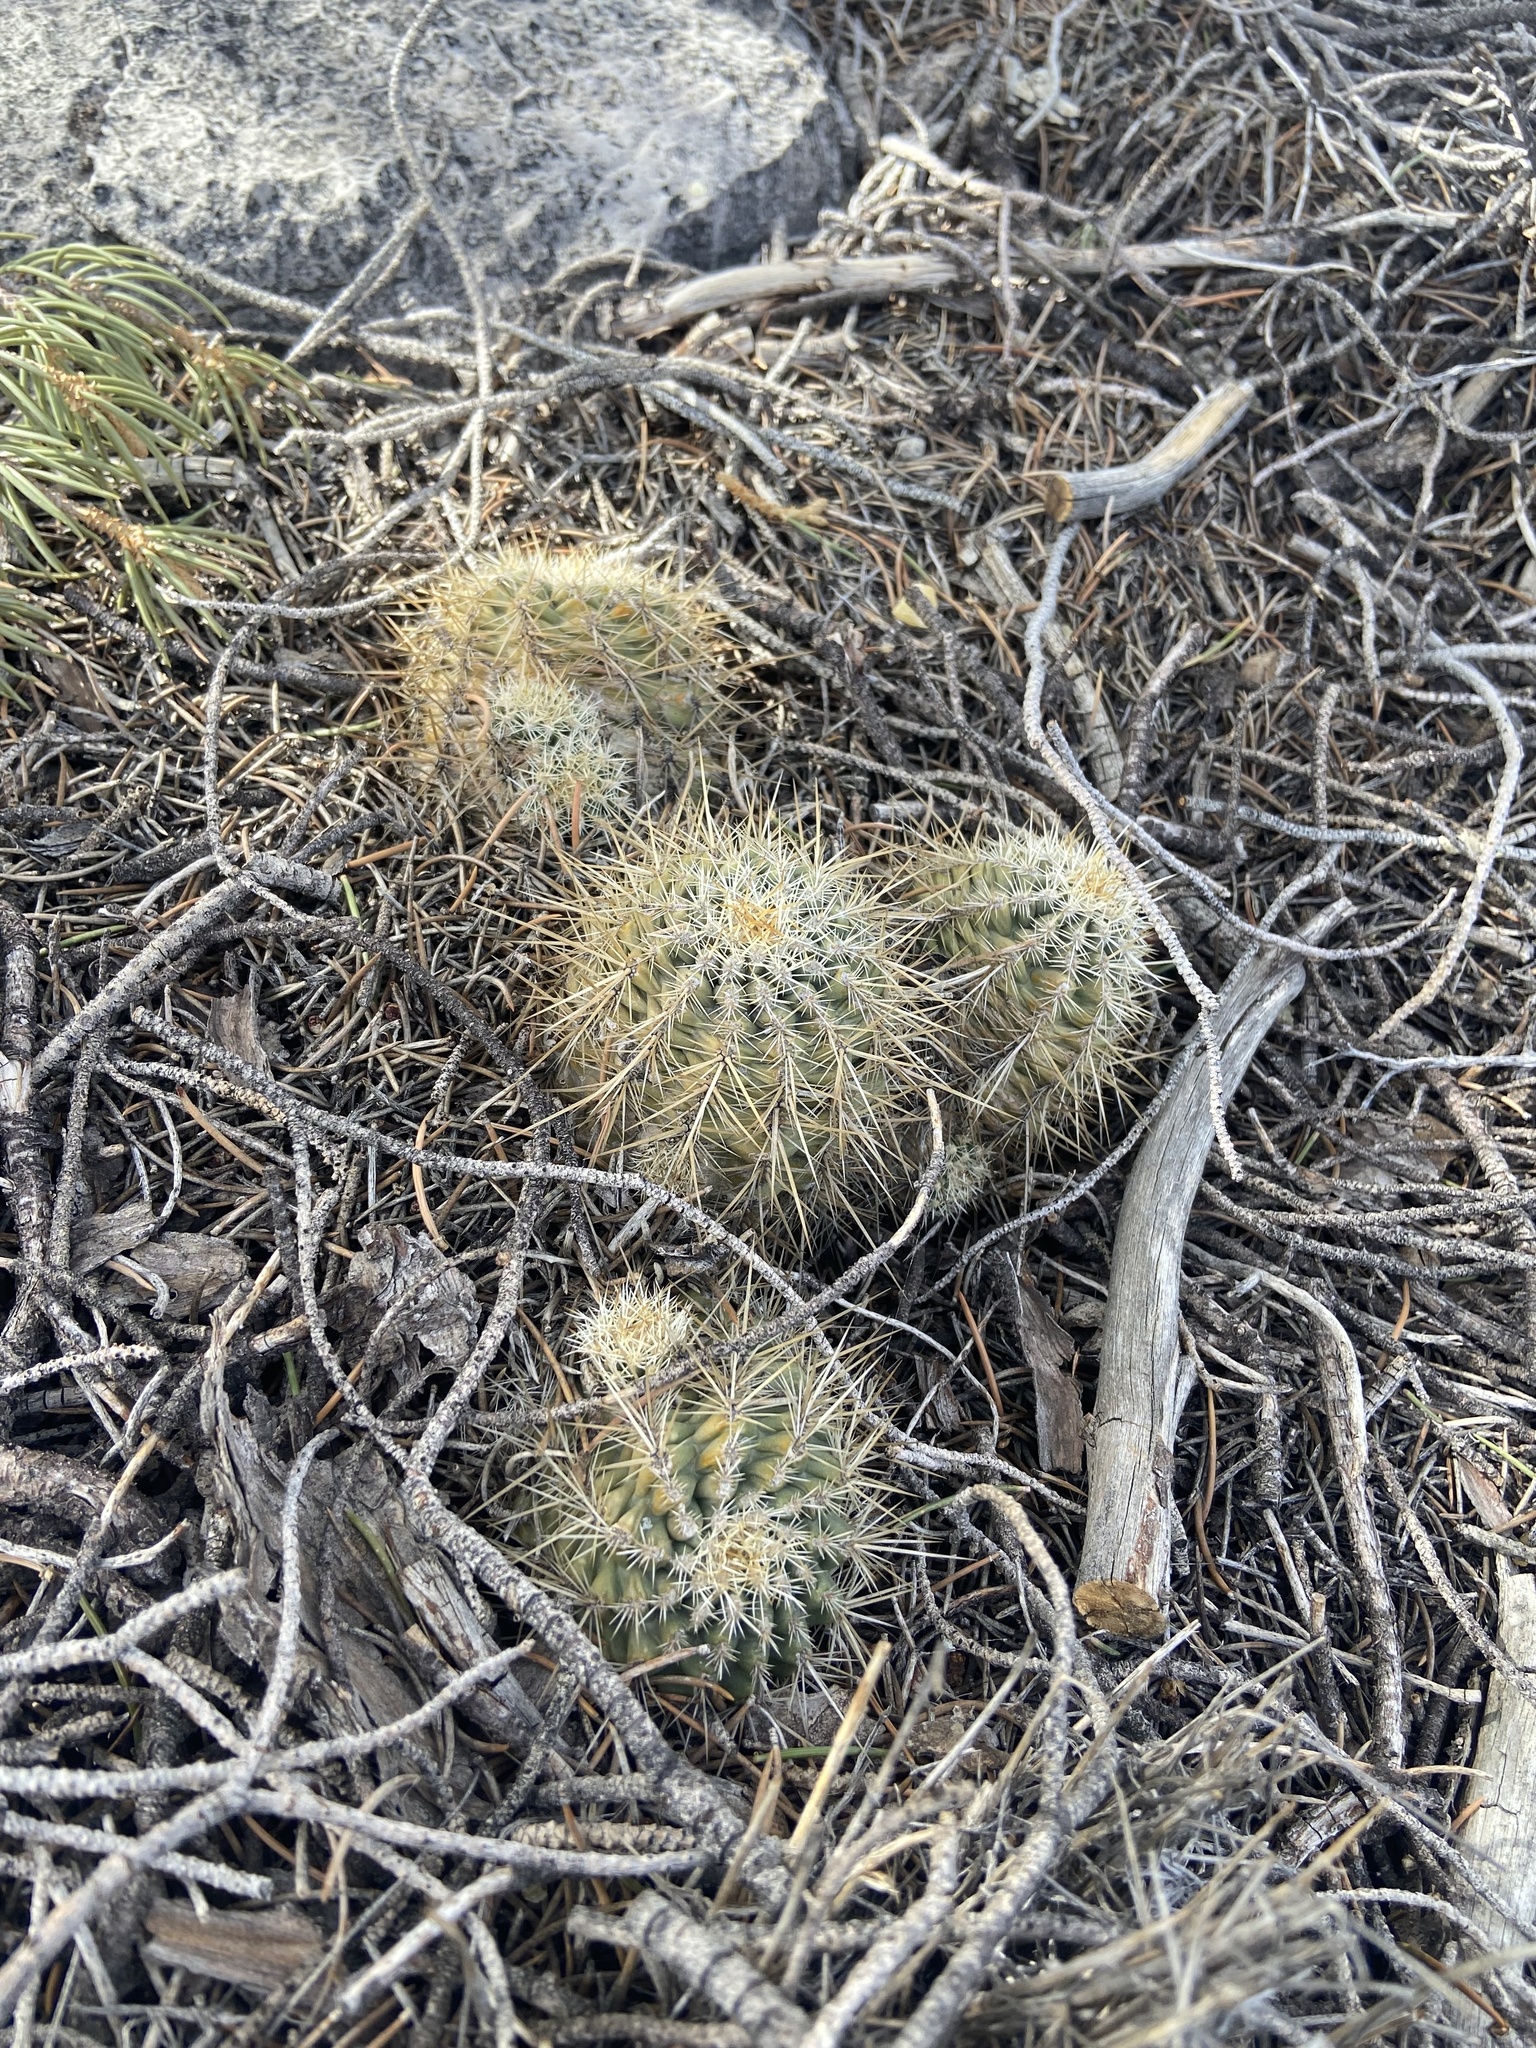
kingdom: Plantae
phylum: Tracheophyta
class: Magnoliopsida
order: Caryophyllales
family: Cactaceae
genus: Echinocereus
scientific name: Echinocereus engelmannii
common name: Engelmann's hedgehog cactus
